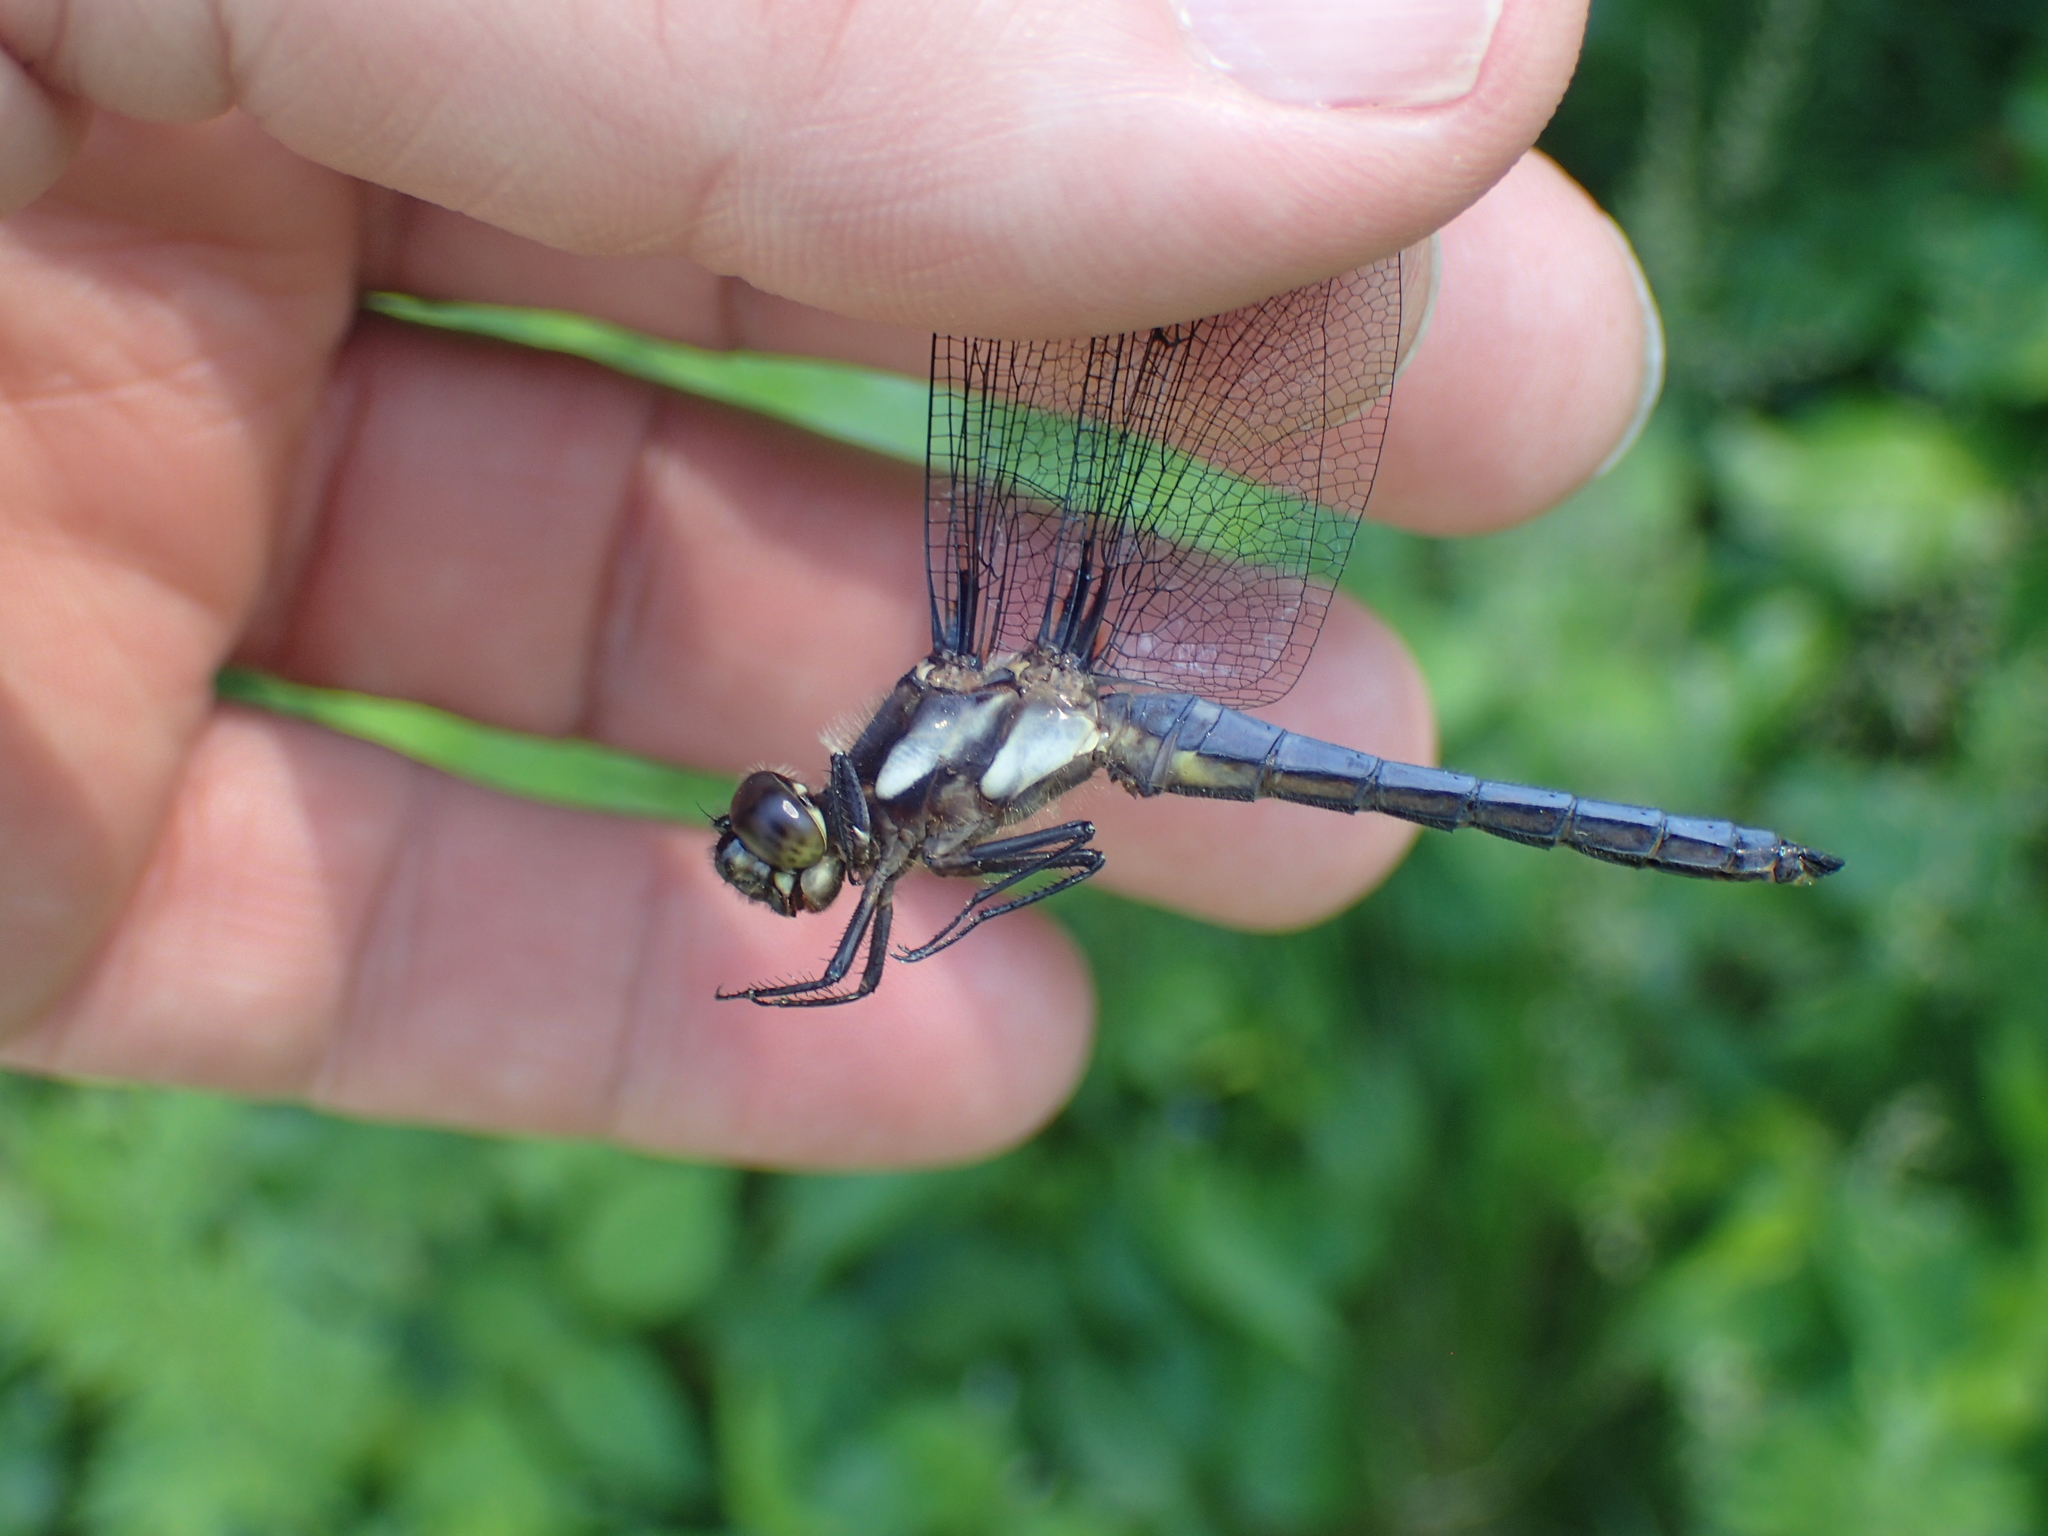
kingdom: Animalia
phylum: Arthropoda
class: Insecta
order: Odonata
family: Libellulidae
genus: Libellula
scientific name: Libellula cyanea
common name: Spangled skimmer
